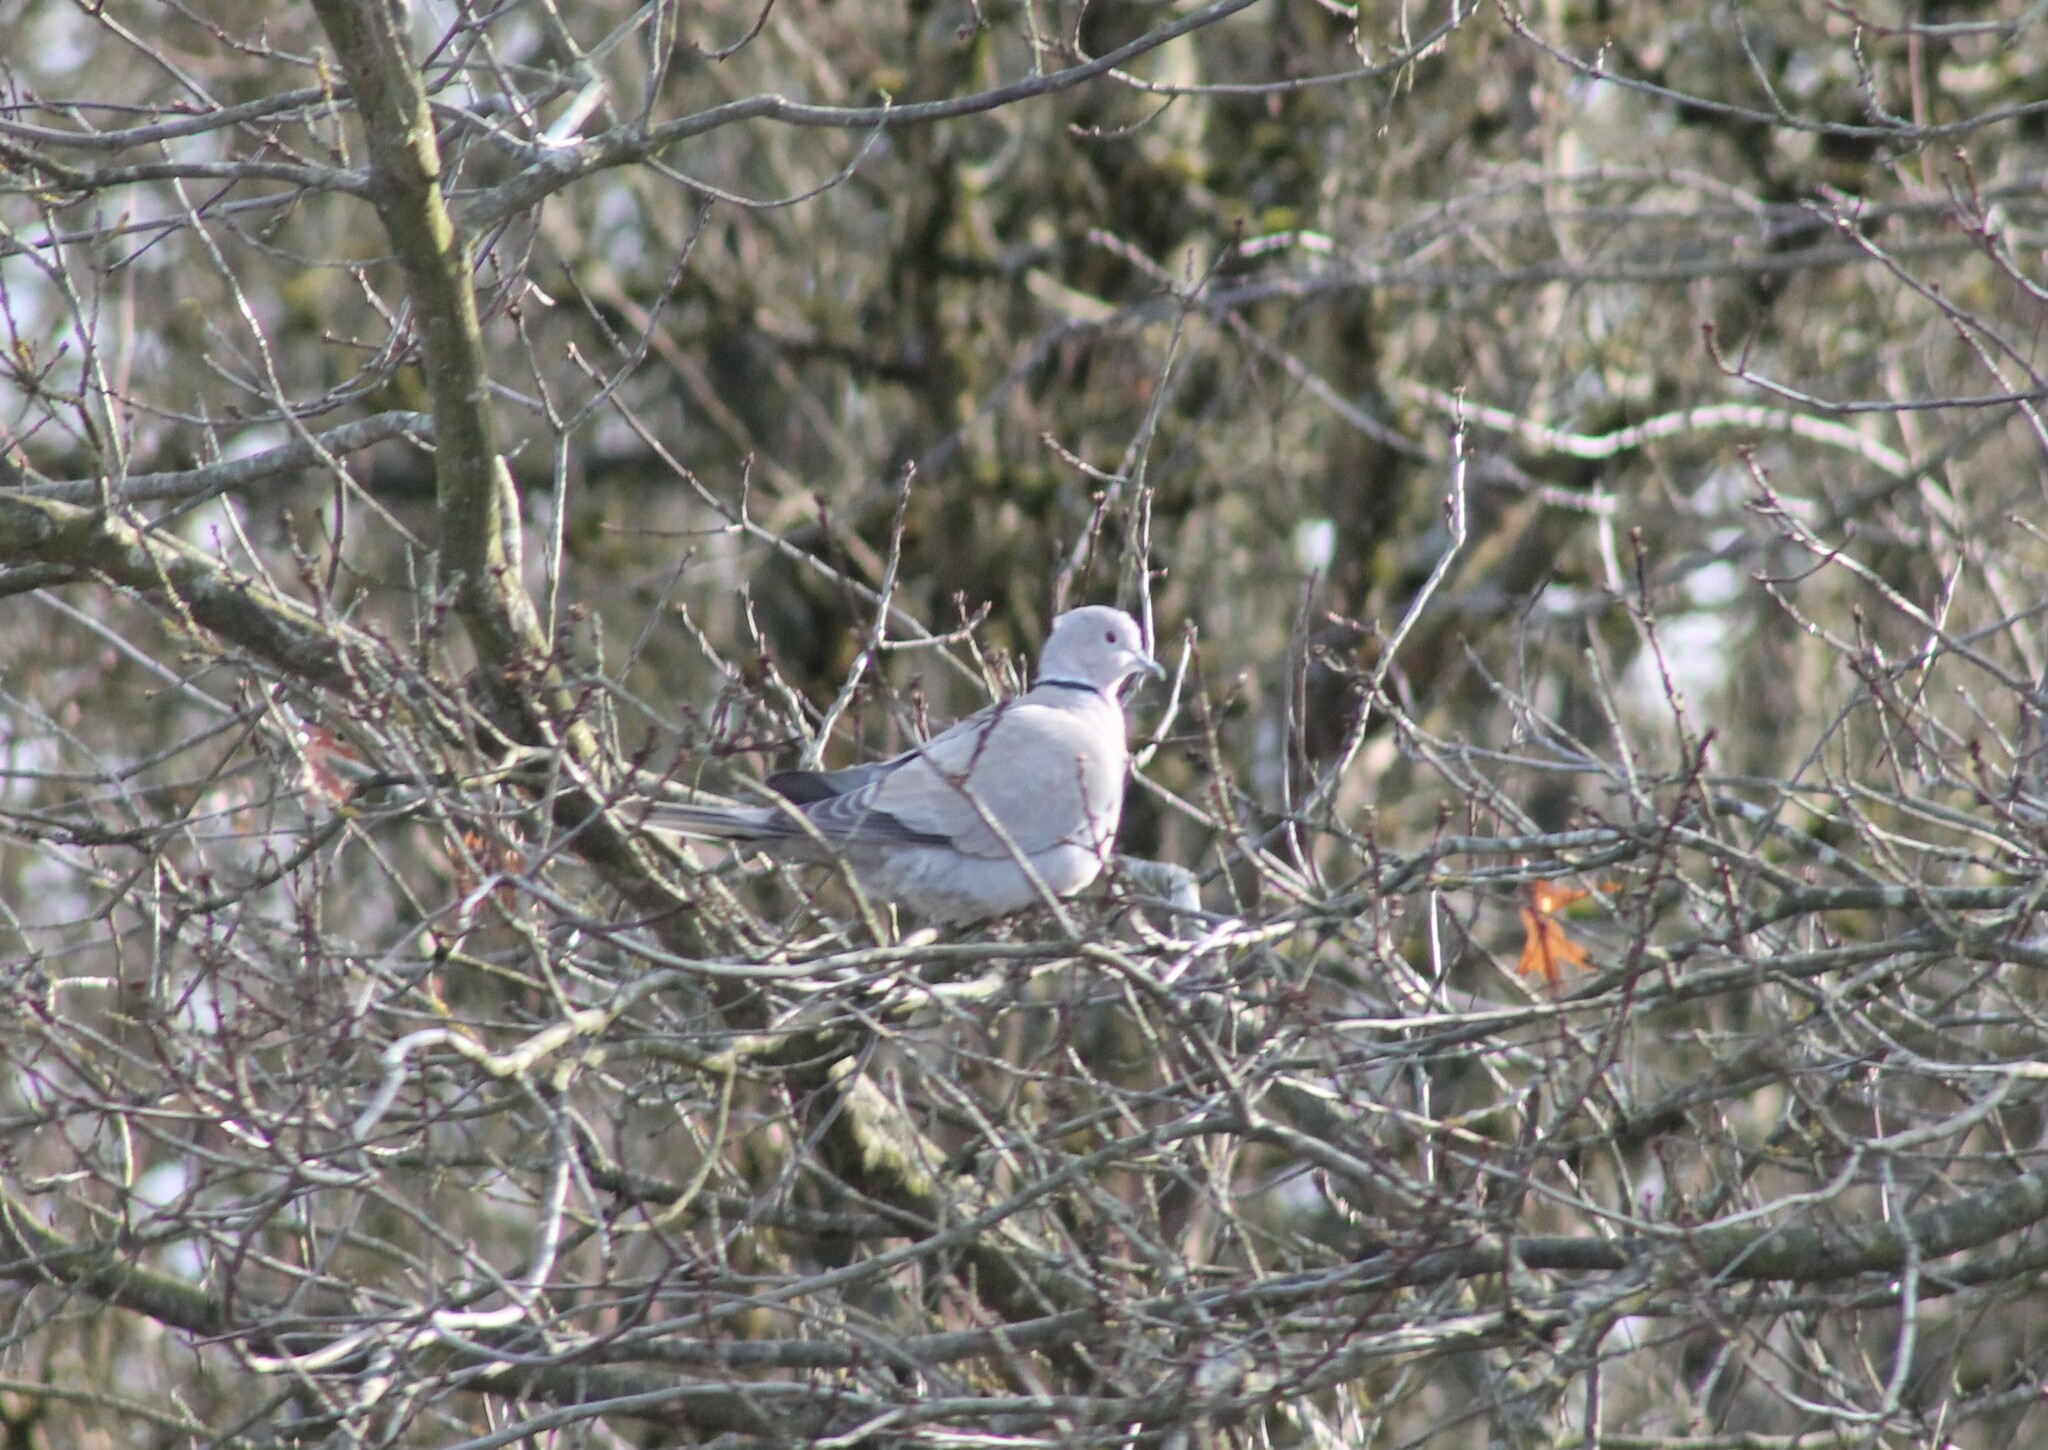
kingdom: Animalia
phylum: Chordata
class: Aves
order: Columbiformes
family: Columbidae
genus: Streptopelia
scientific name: Streptopelia decaocto
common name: Eurasian collared dove
